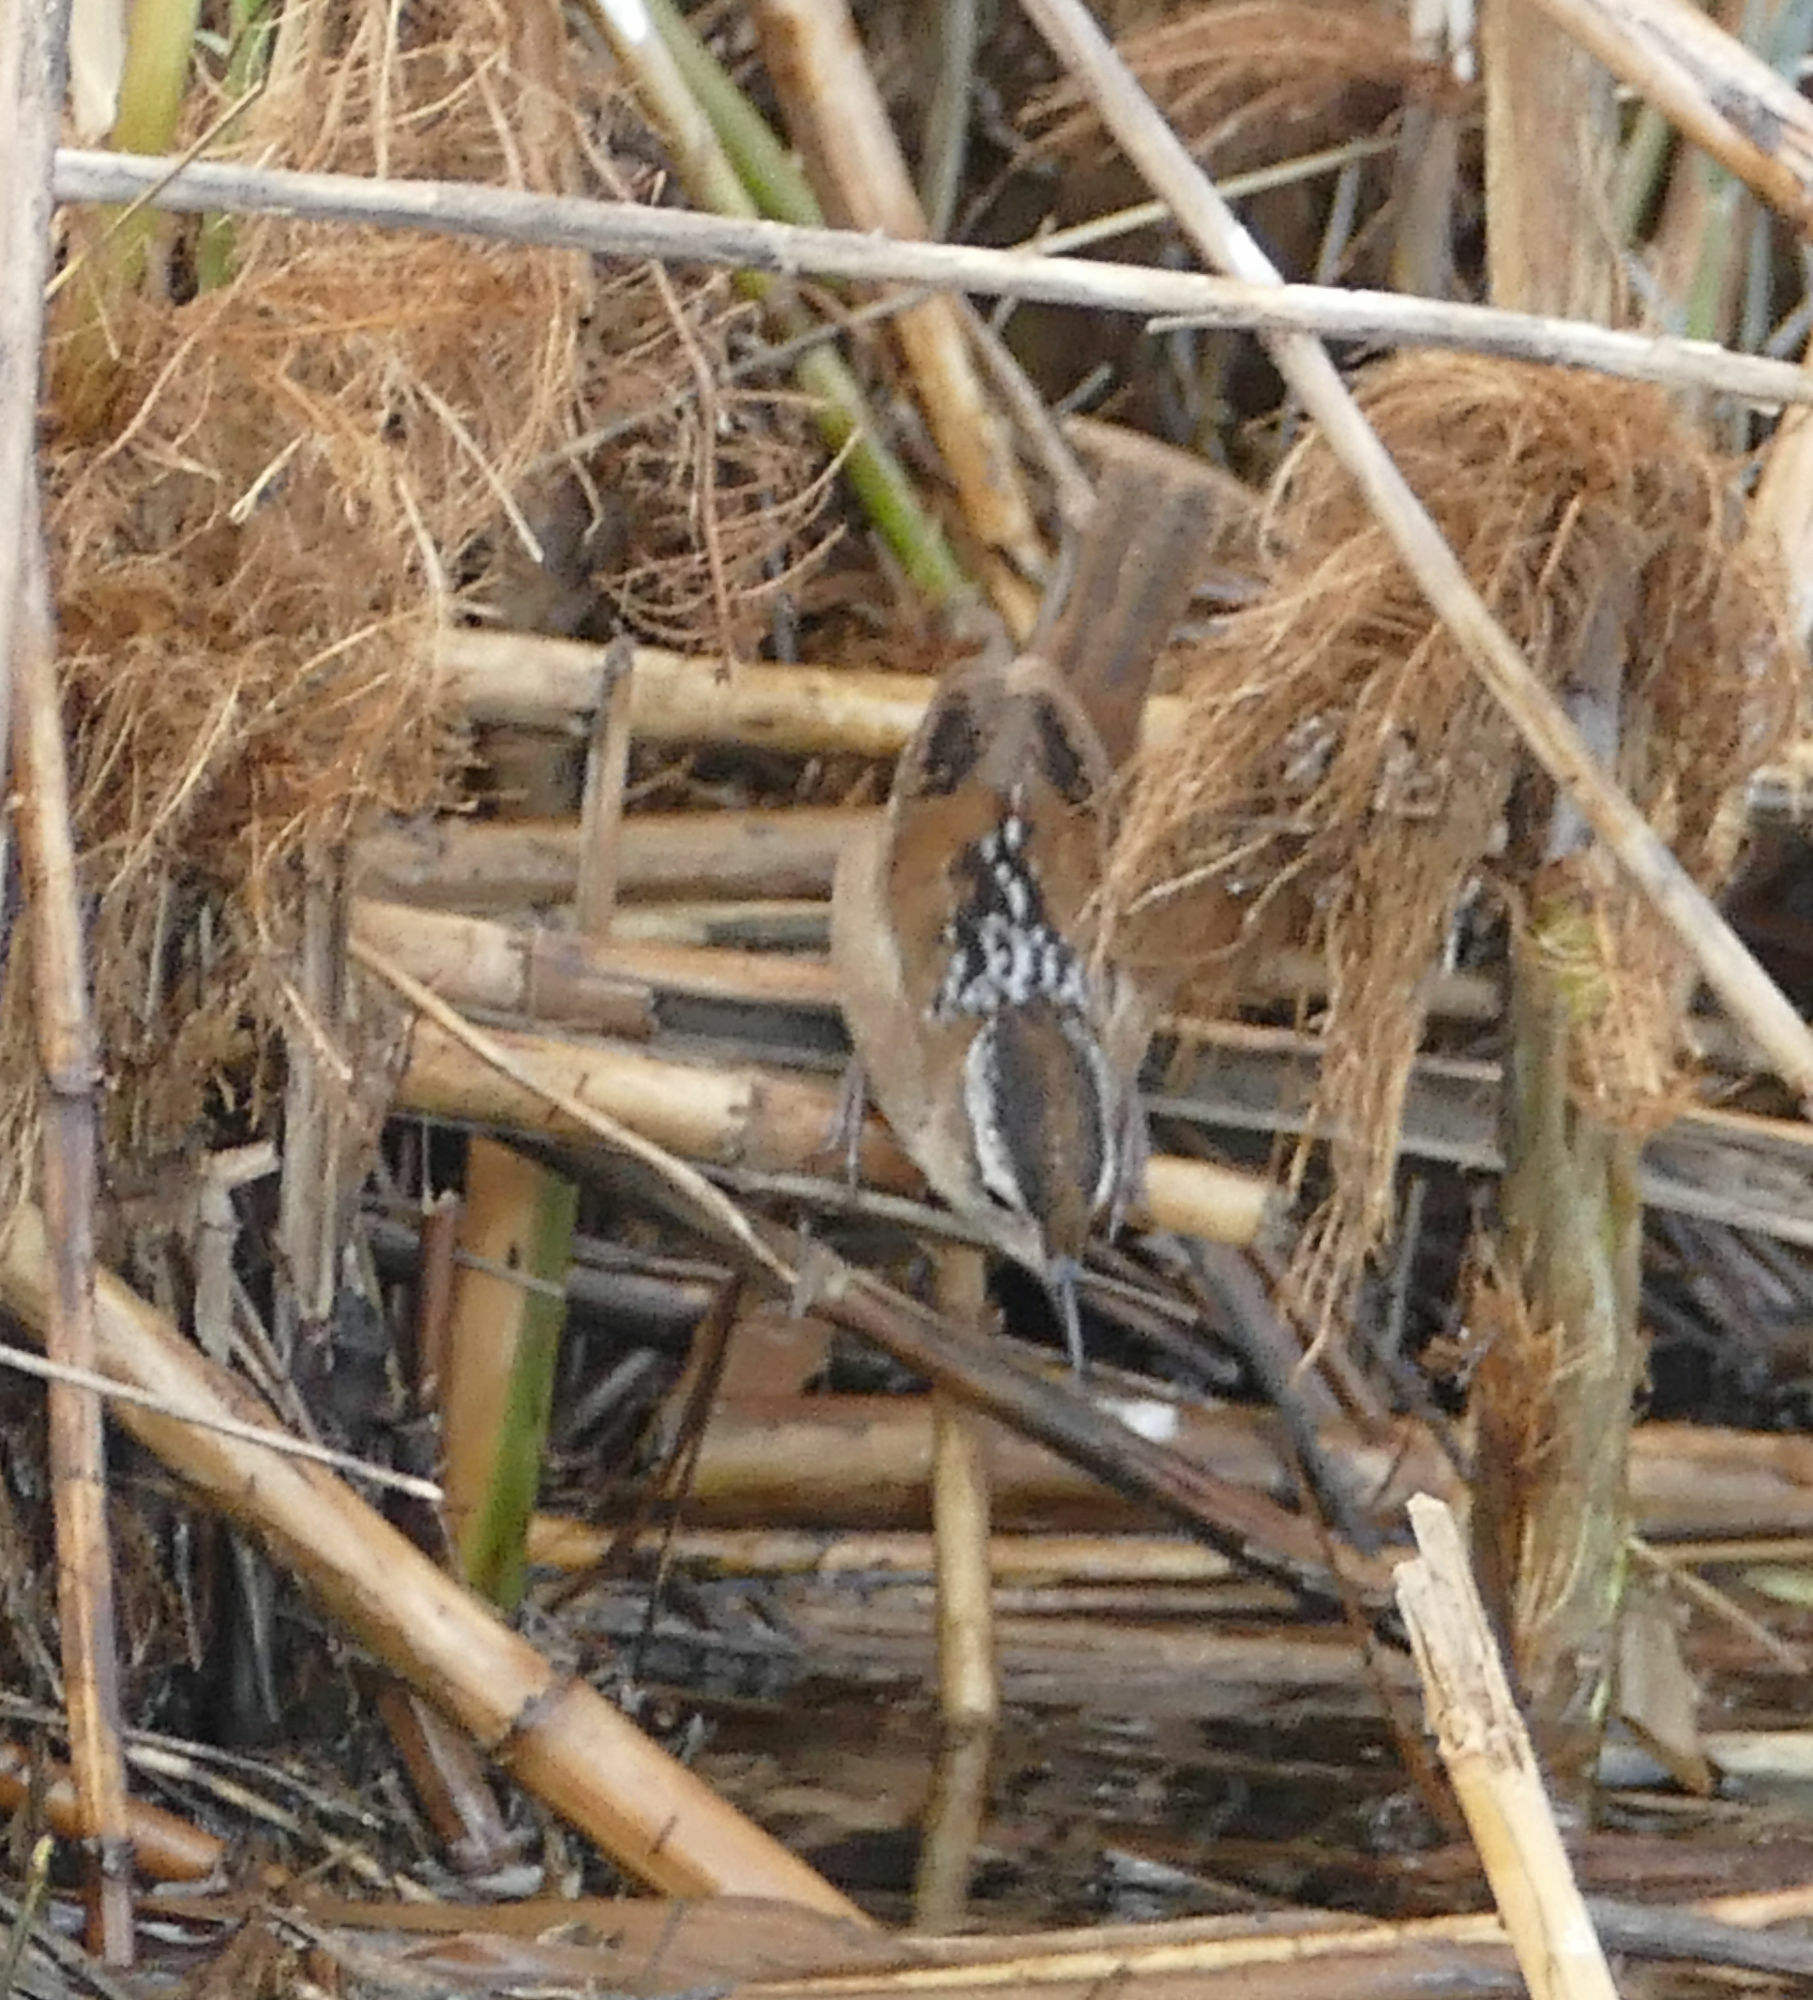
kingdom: Animalia
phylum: Chordata
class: Aves
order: Passeriformes
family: Troglodytidae
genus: Cistothorus
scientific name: Cistothorus palustris
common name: Marsh wren
